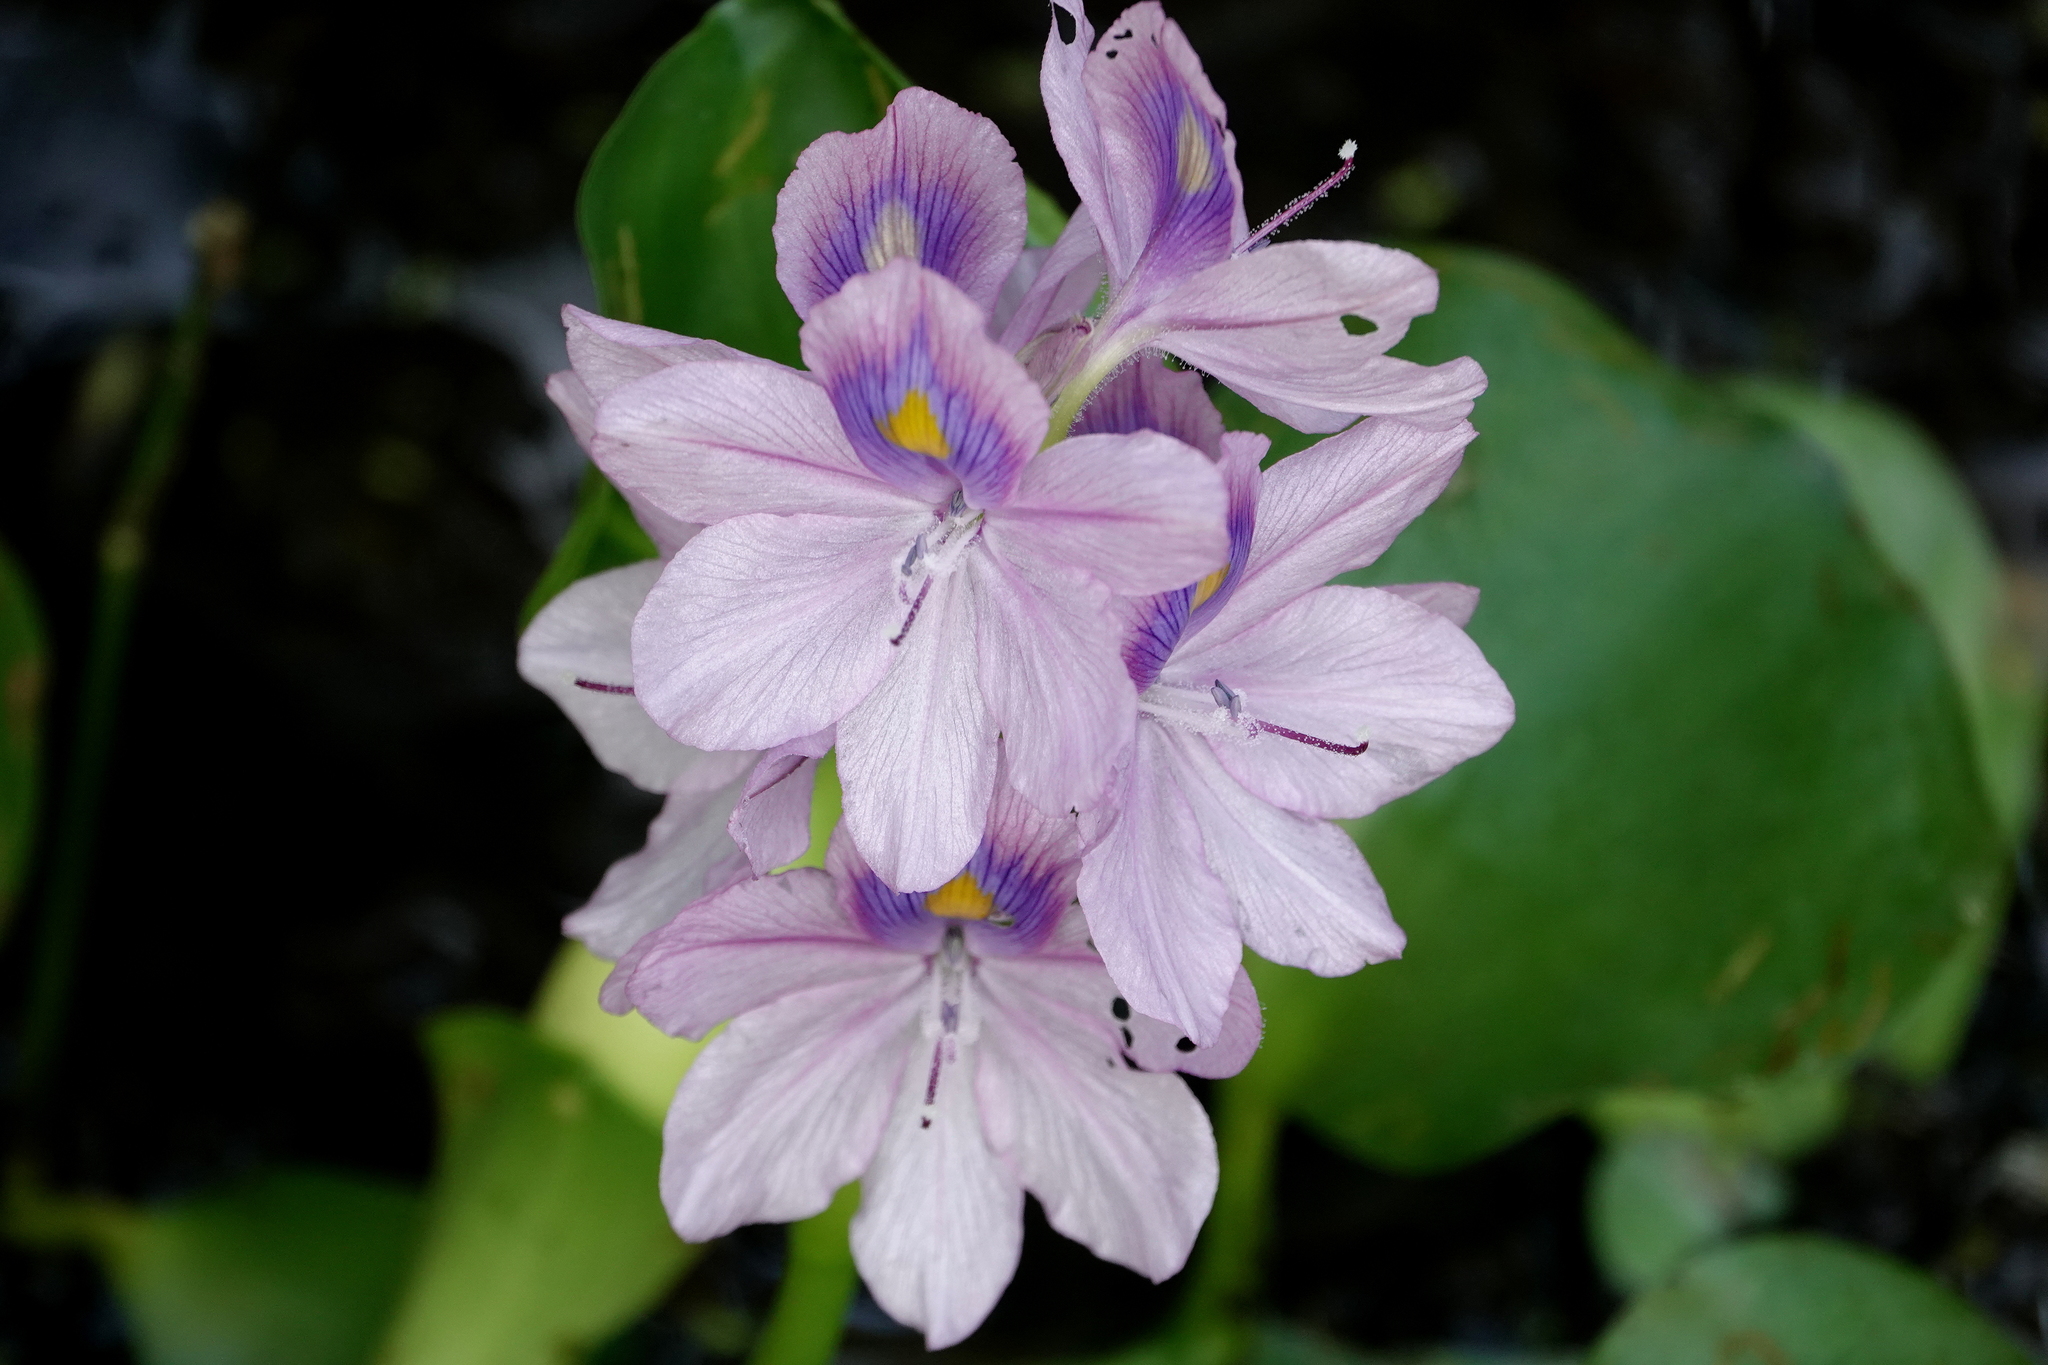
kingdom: Plantae
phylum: Tracheophyta
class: Liliopsida
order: Commelinales
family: Pontederiaceae
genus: Pontederia
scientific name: Pontederia crassipes
